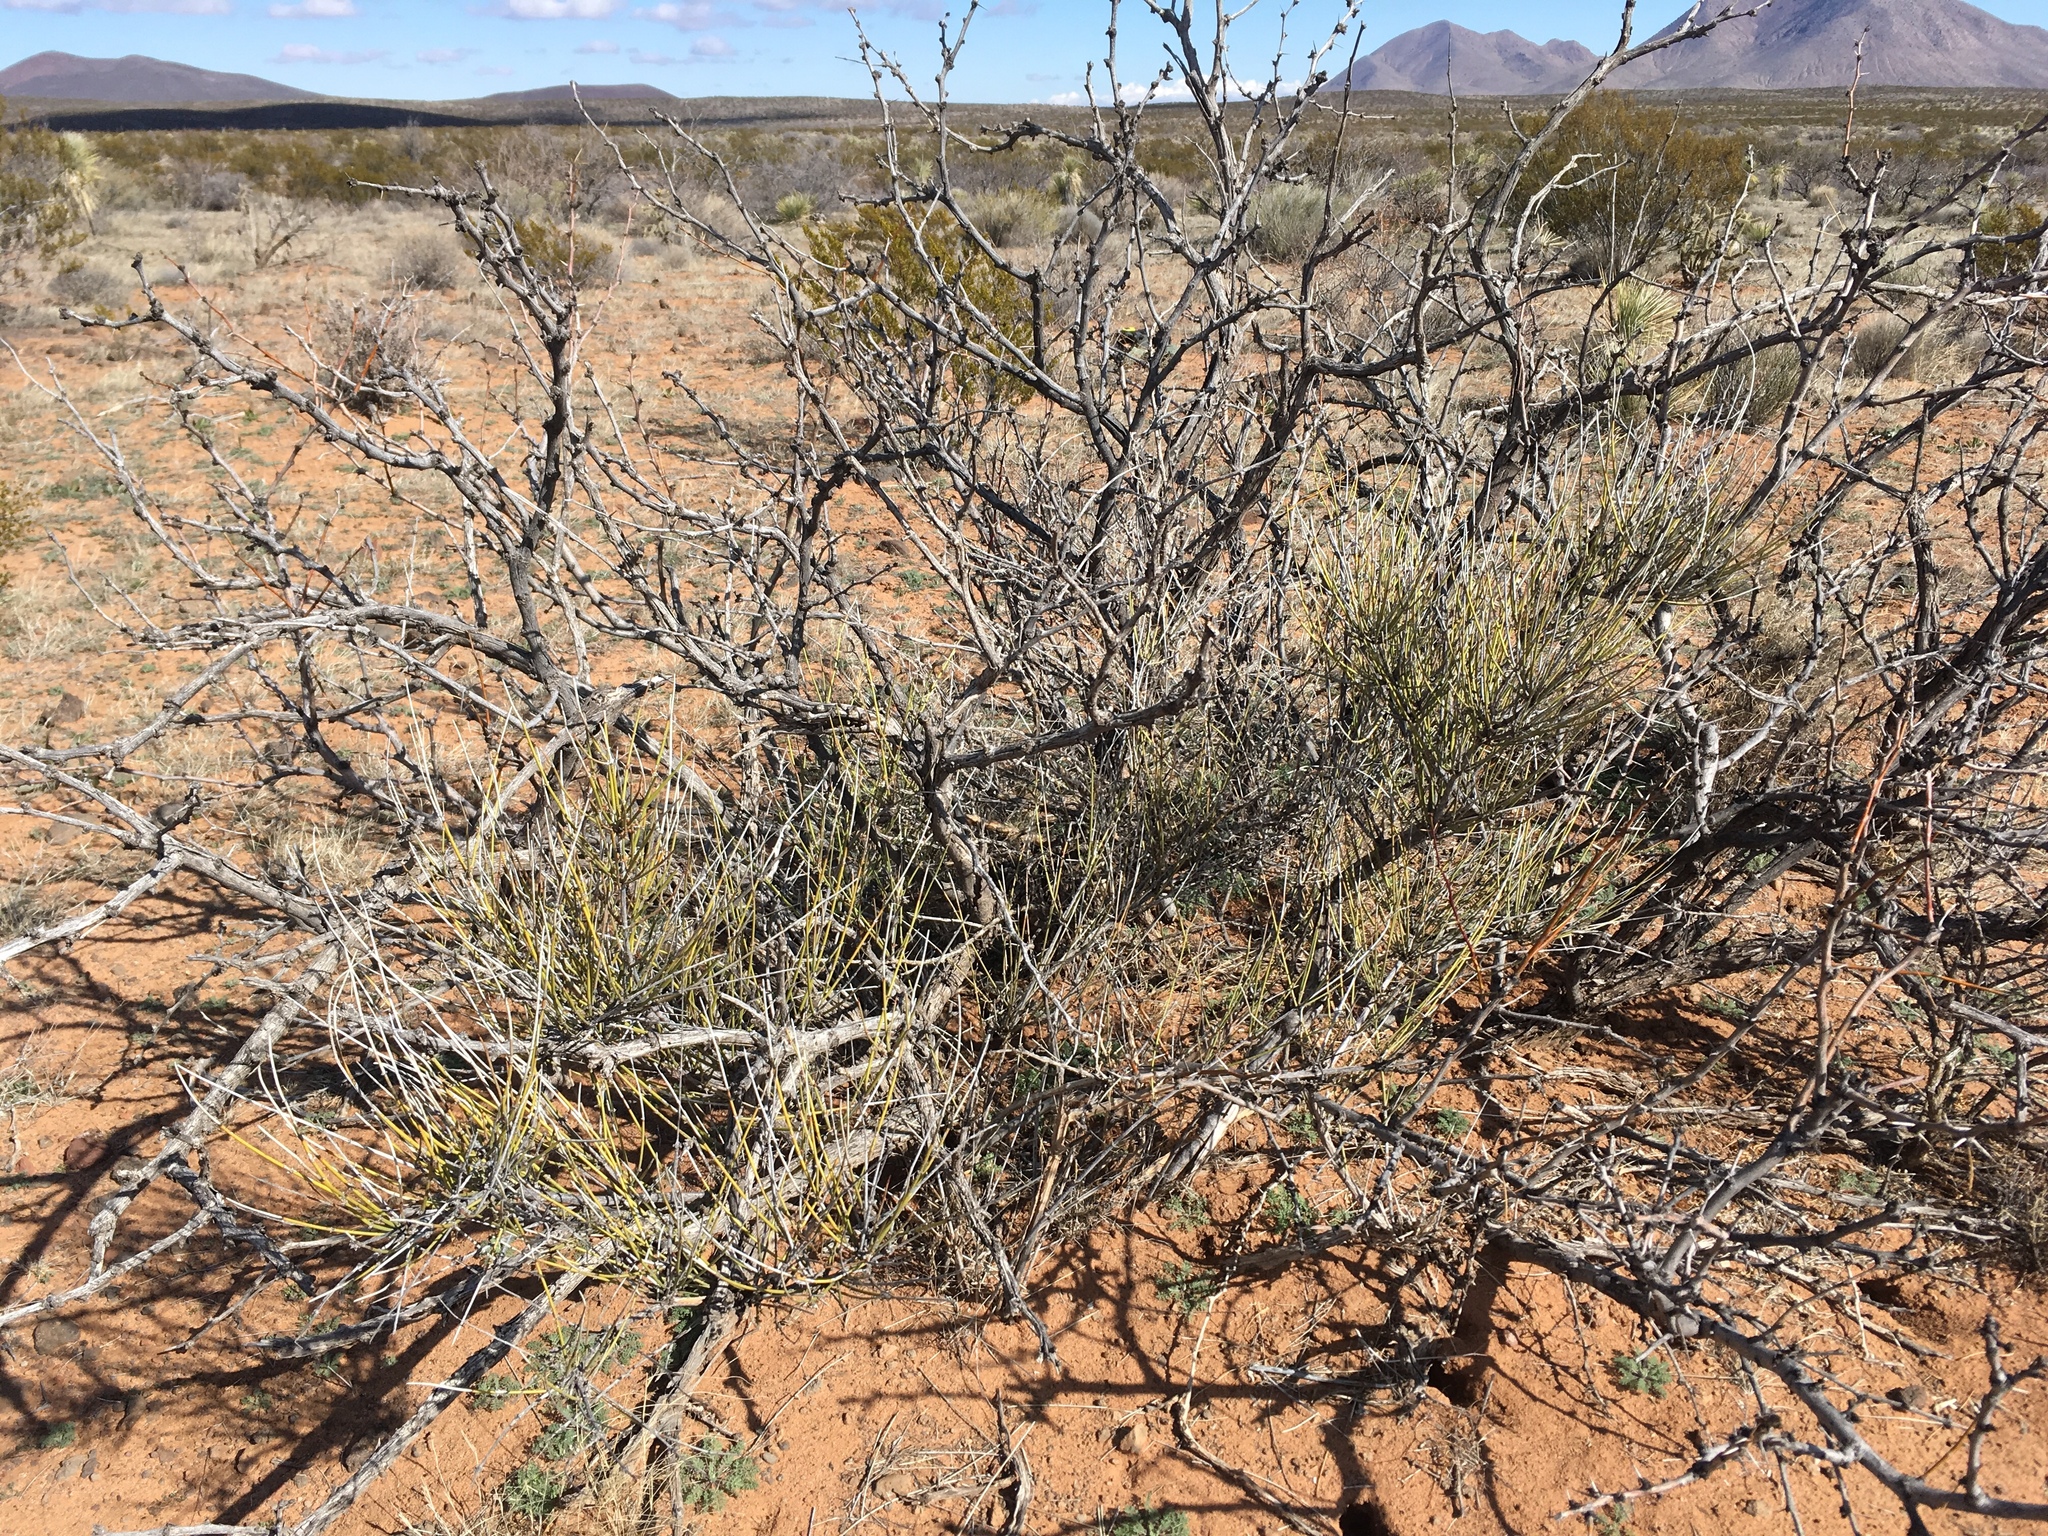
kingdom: Plantae
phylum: Tracheophyta
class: Gnetopsida
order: Ephedrales
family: Ephedraceae
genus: Ephedra
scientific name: Ephedra trifurca
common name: Mexican-tea
